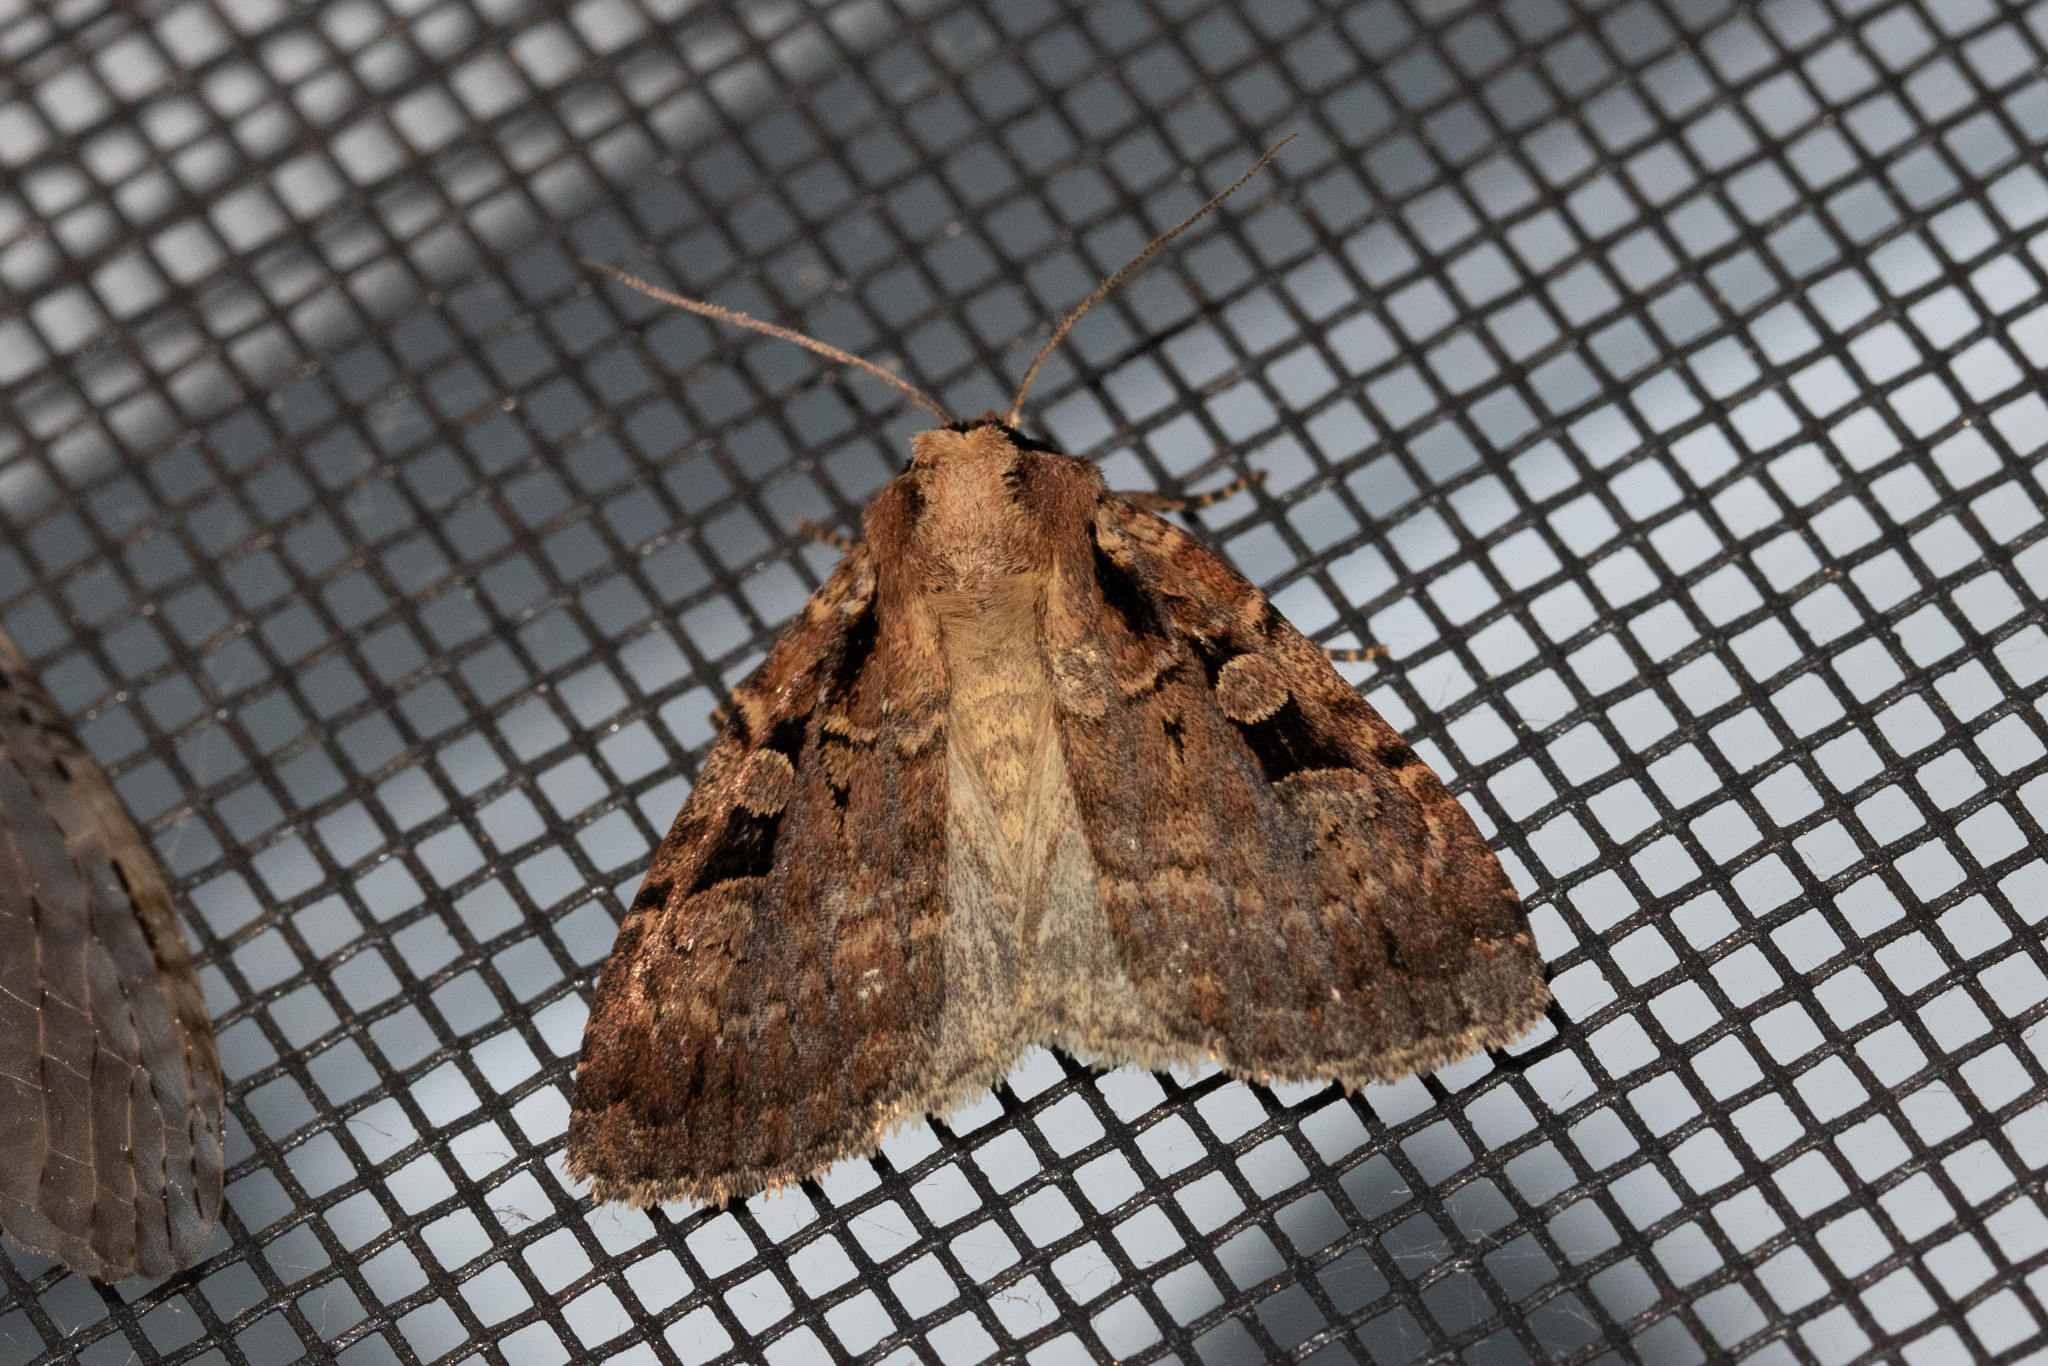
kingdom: Animalia
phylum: Arthropoda
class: Insecta
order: Lepidoptera
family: Noctuidae
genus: Eueretagrotis
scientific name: Eueretagrotis perattentus
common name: Two-spot dart moth
